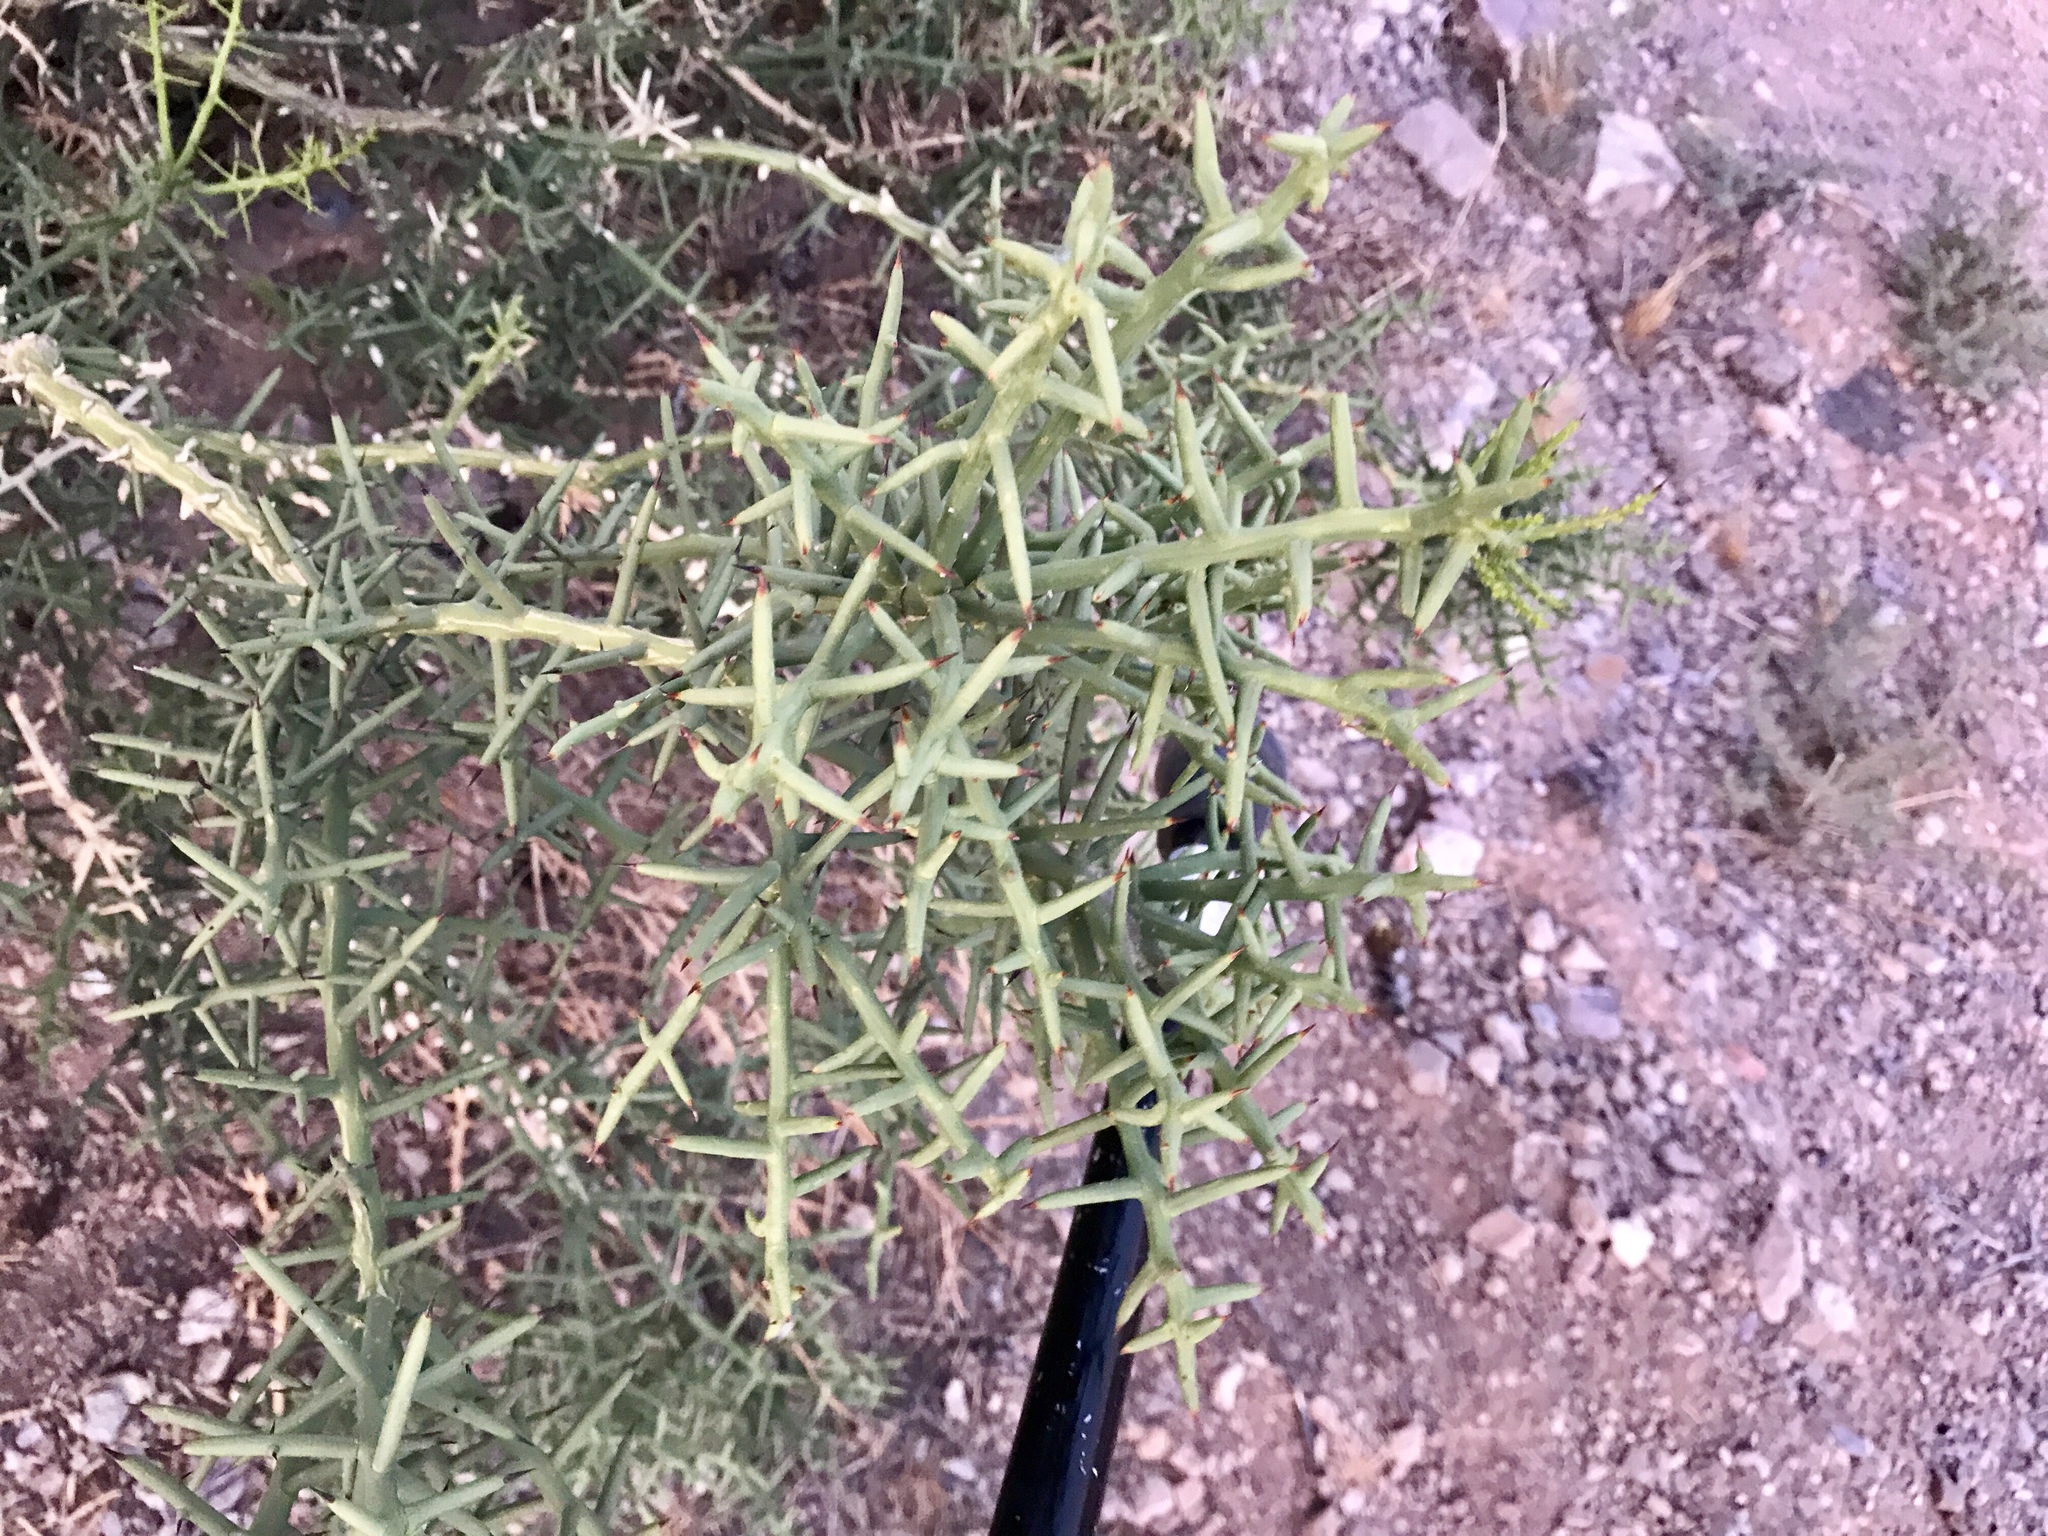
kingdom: Plantae
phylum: Tracheophyta
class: Magnoliopsida
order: Brassicales
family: Koeberliniaceae
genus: Koeberlinia
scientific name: Koeberlinia spinosa
